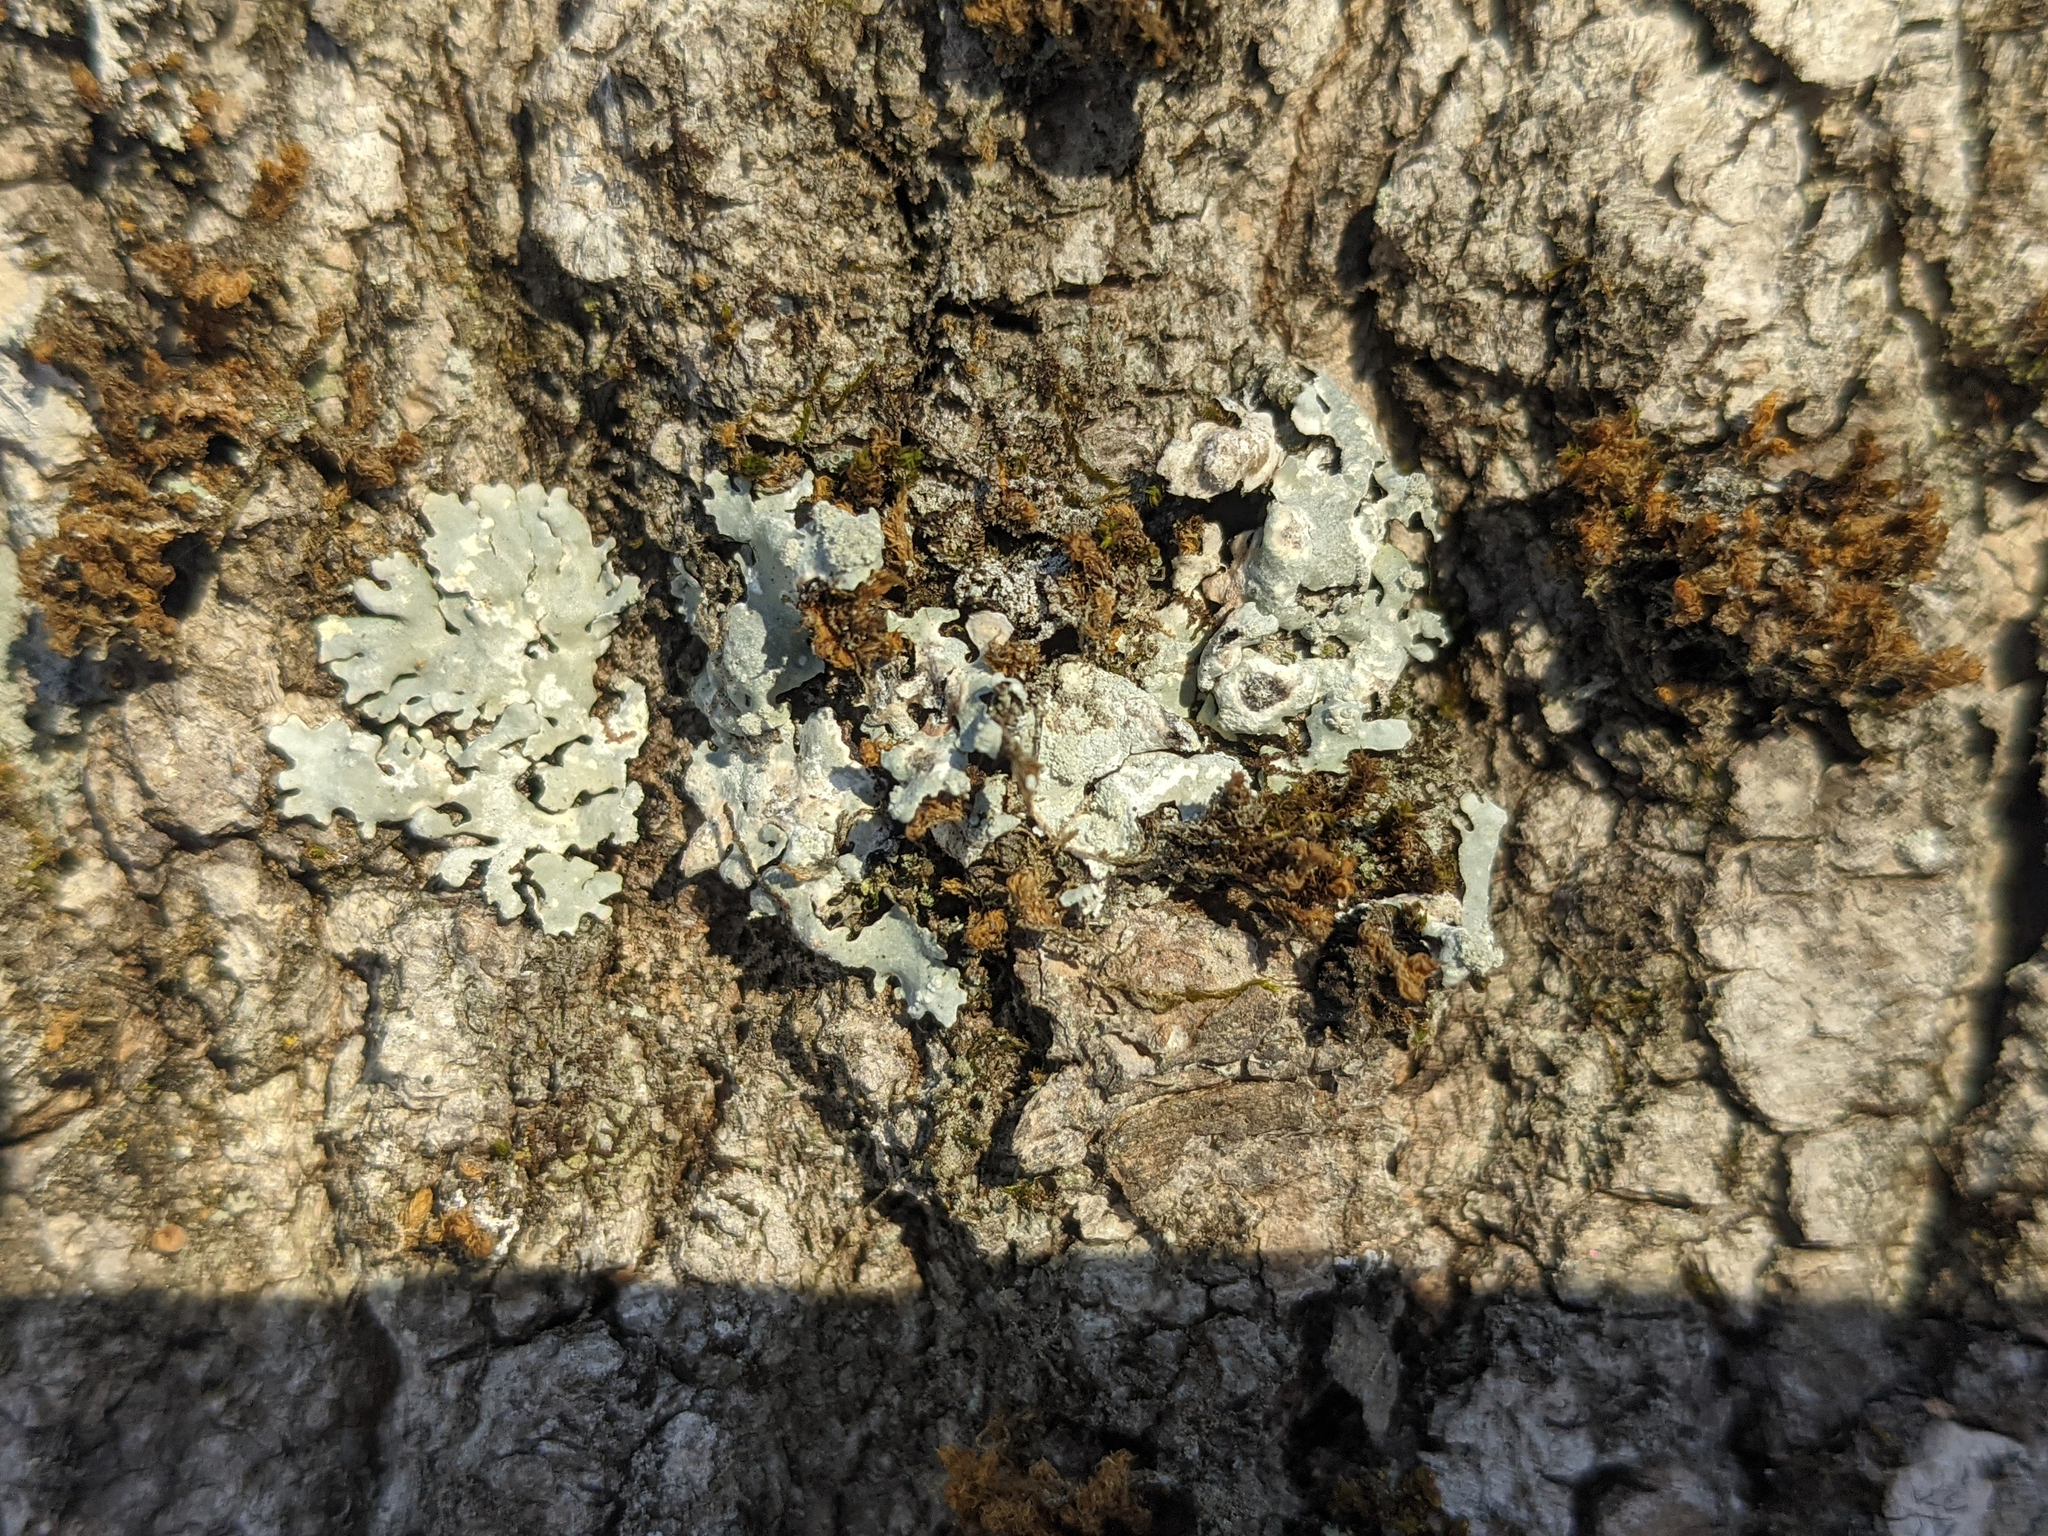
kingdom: Plantae
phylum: Bryophyta
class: Bryopsida
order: Orthotrichales
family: Orthotrichaceae
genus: Ulota
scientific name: Ulota crispa
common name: Crisped pincushion moss
